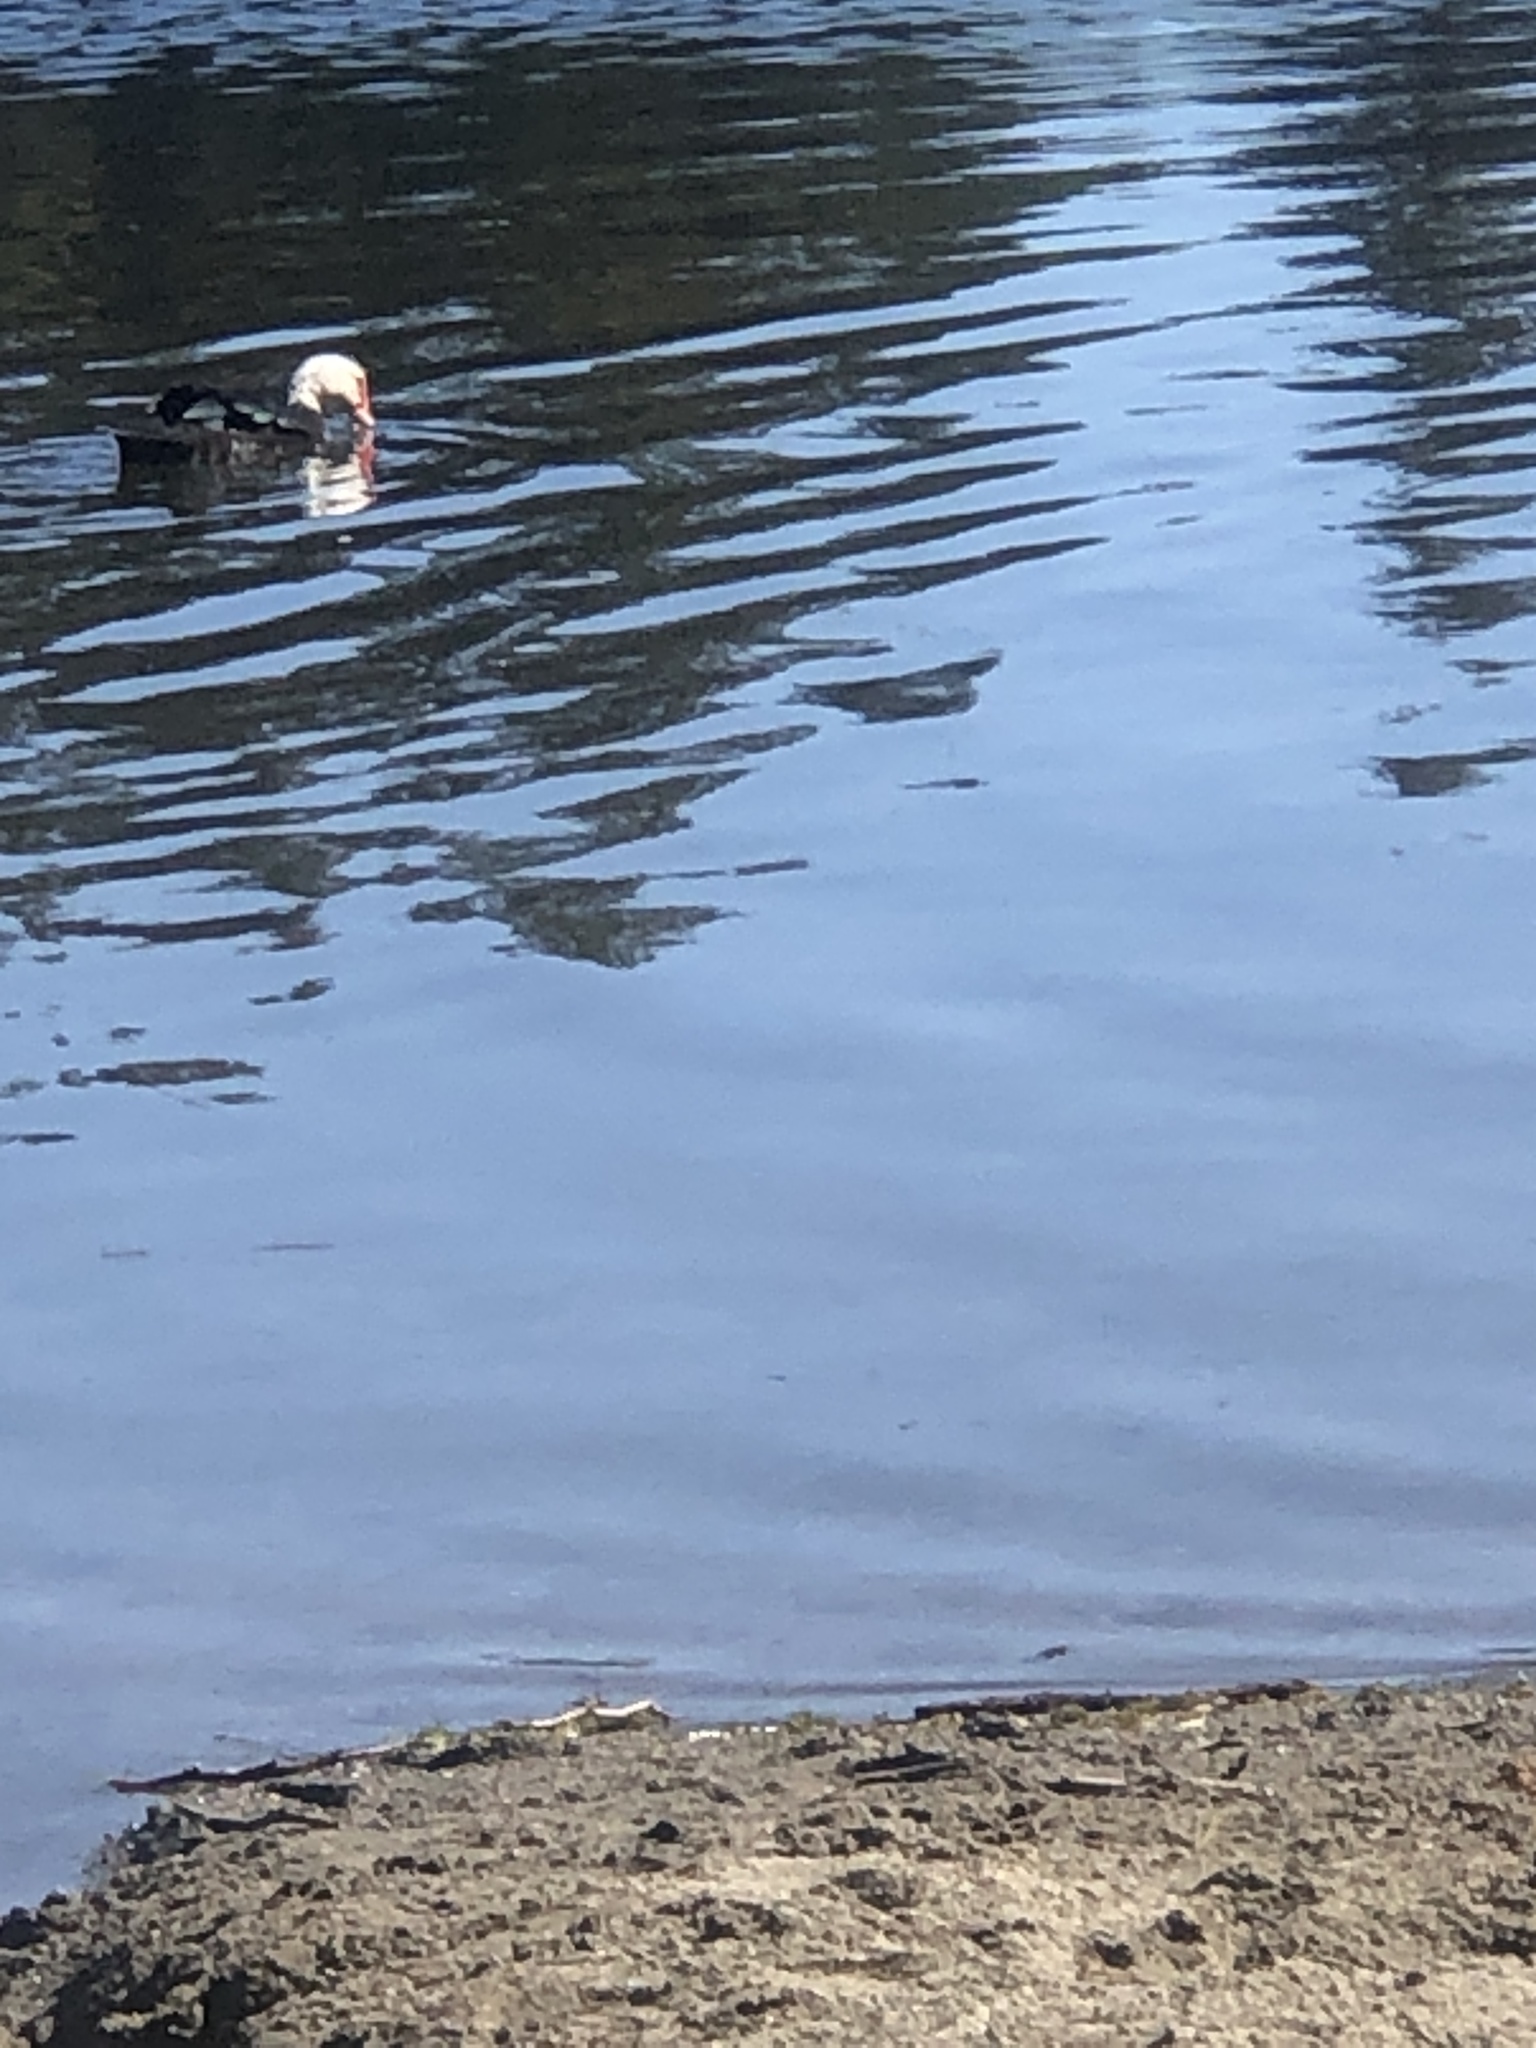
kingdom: Animalia
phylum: Chordata
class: Aves
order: Anseriformes
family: Anatidae
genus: Cairina
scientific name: Cairina moschata
